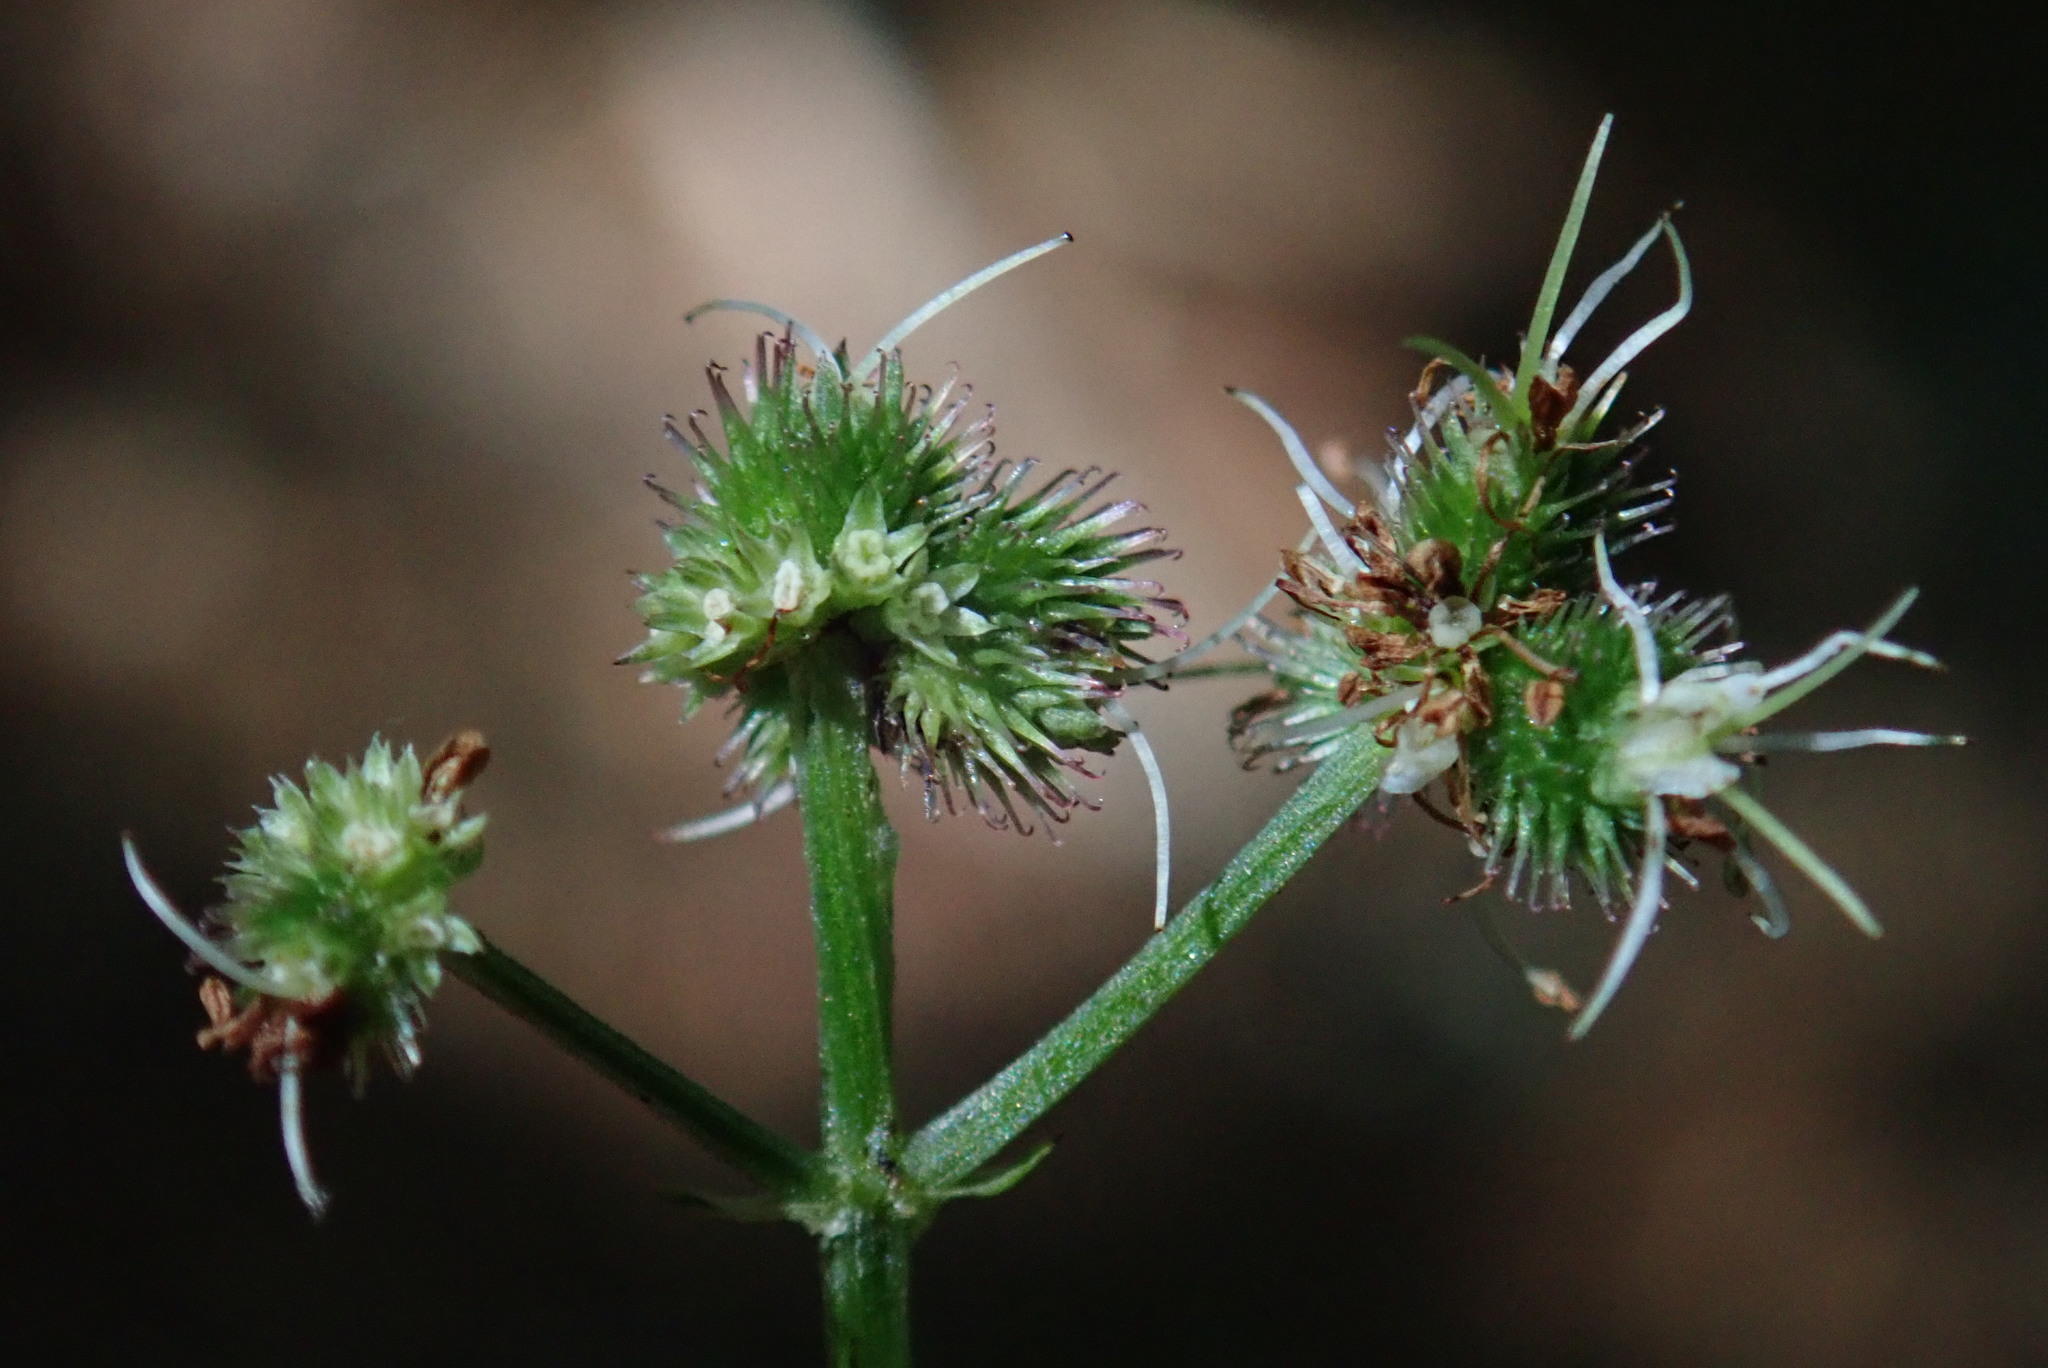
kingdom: Plantae
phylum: Tracheophyta
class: Magnoliopsida
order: Apiales
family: Apiaceae
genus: Sanicula
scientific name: Sanicula europaea
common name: Sanicle
